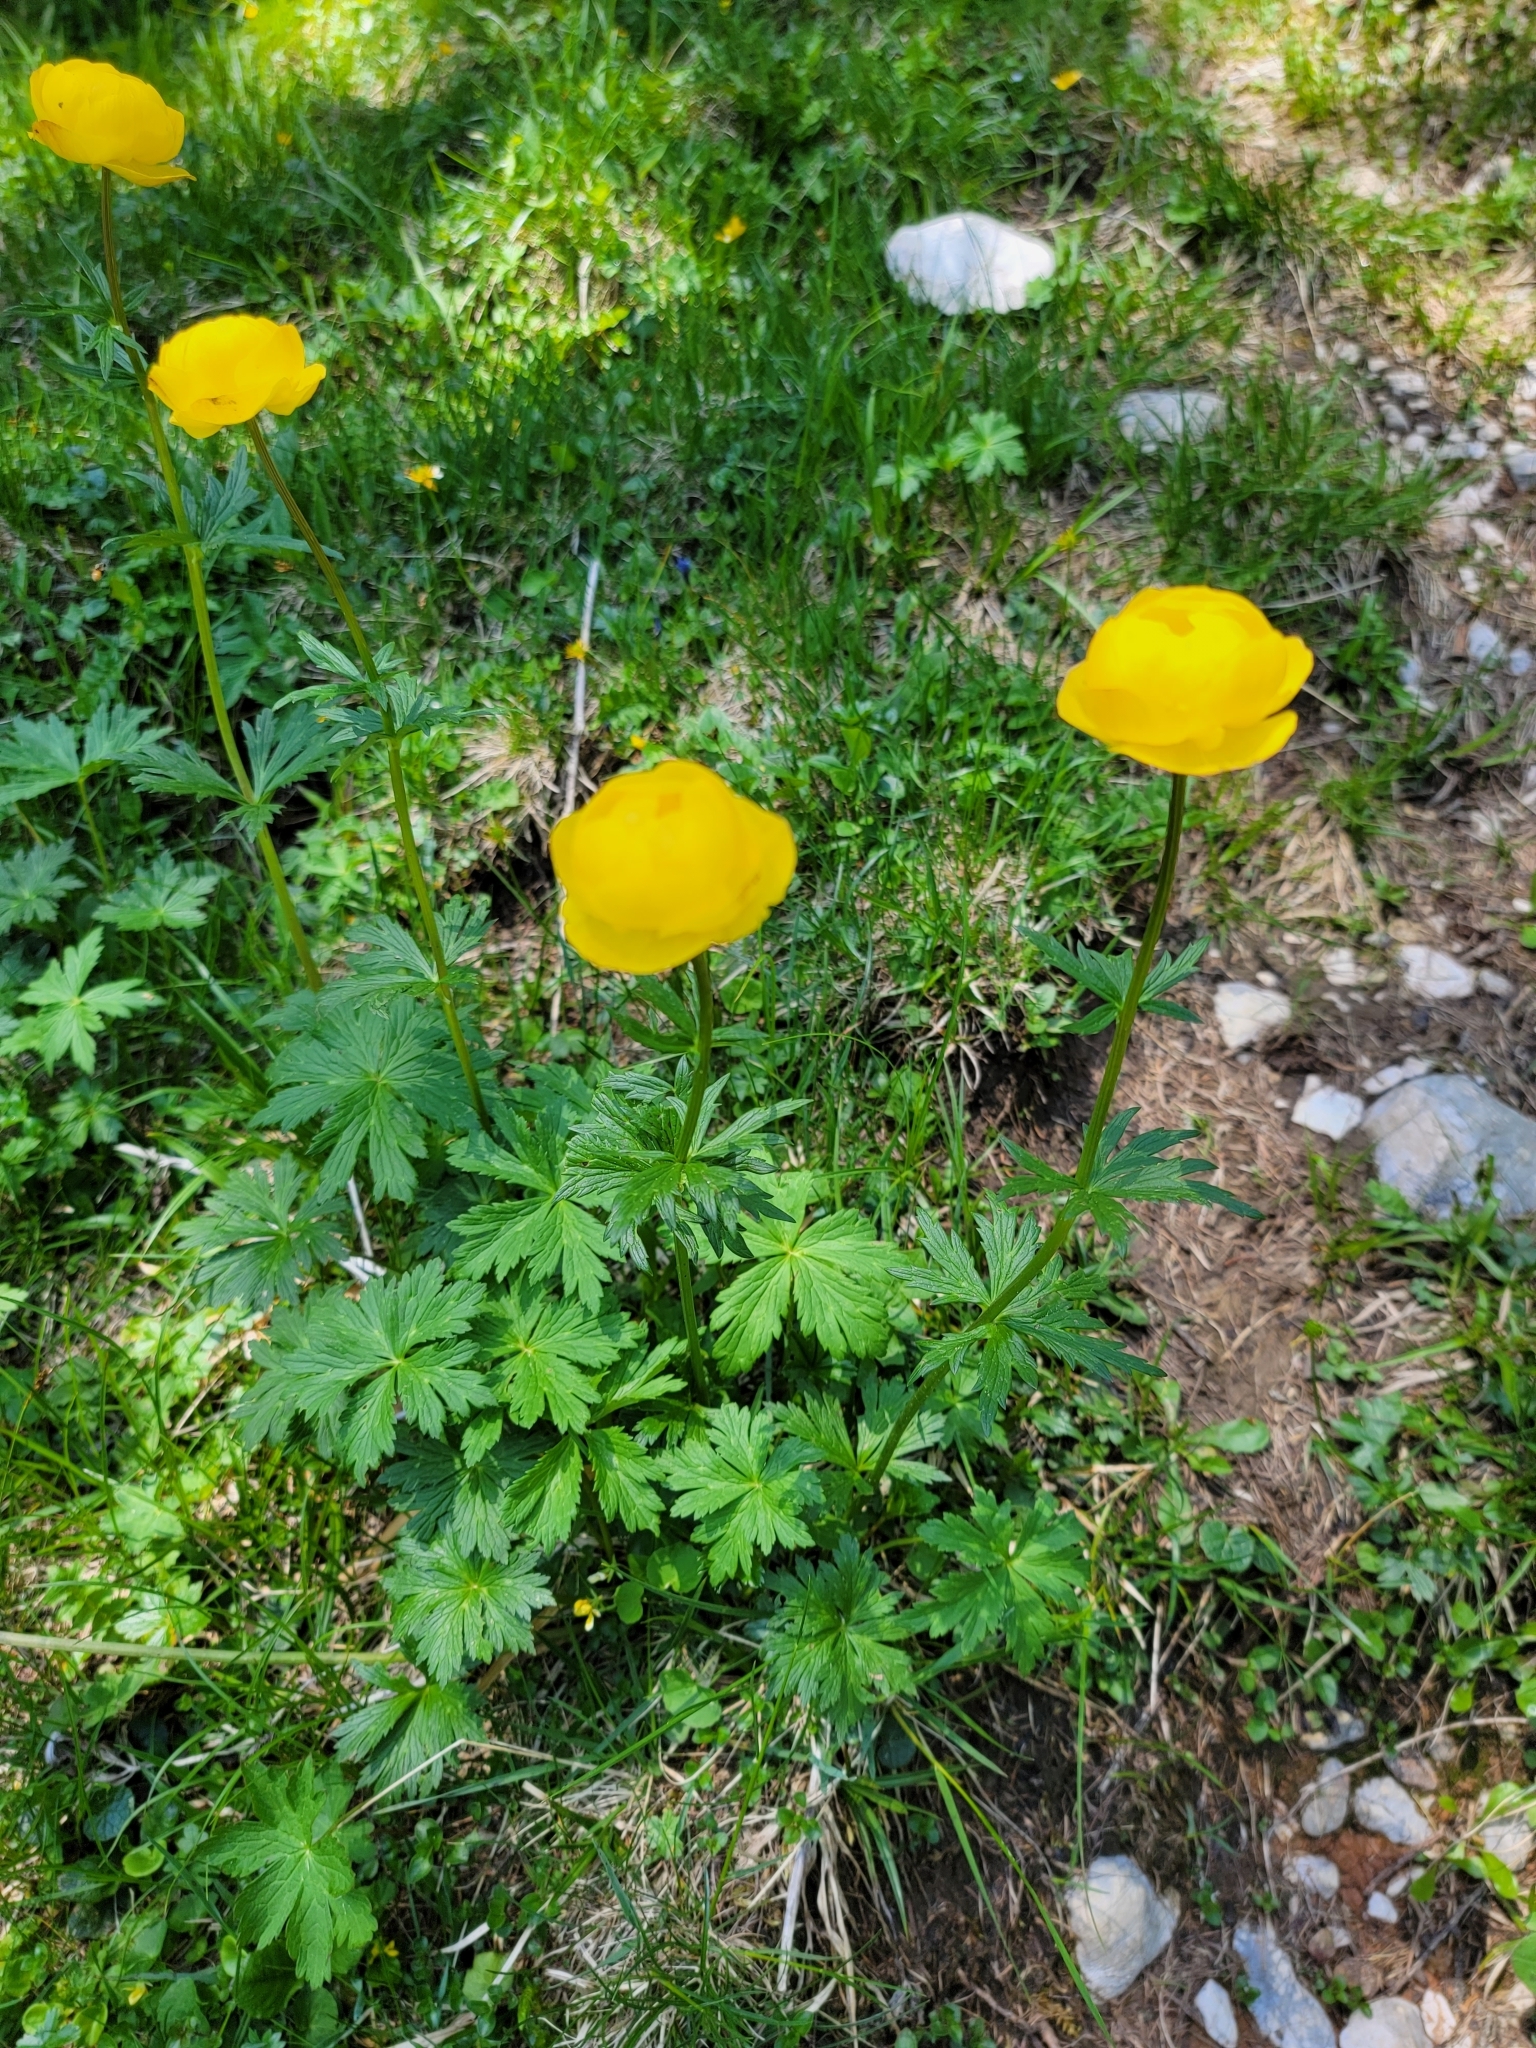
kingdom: Plantae
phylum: Tracheophyta
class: Magnoliopsida
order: Ranunculales
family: Ranunculaceae
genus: Trollius
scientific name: Trollius europaeus
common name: European globeflower
